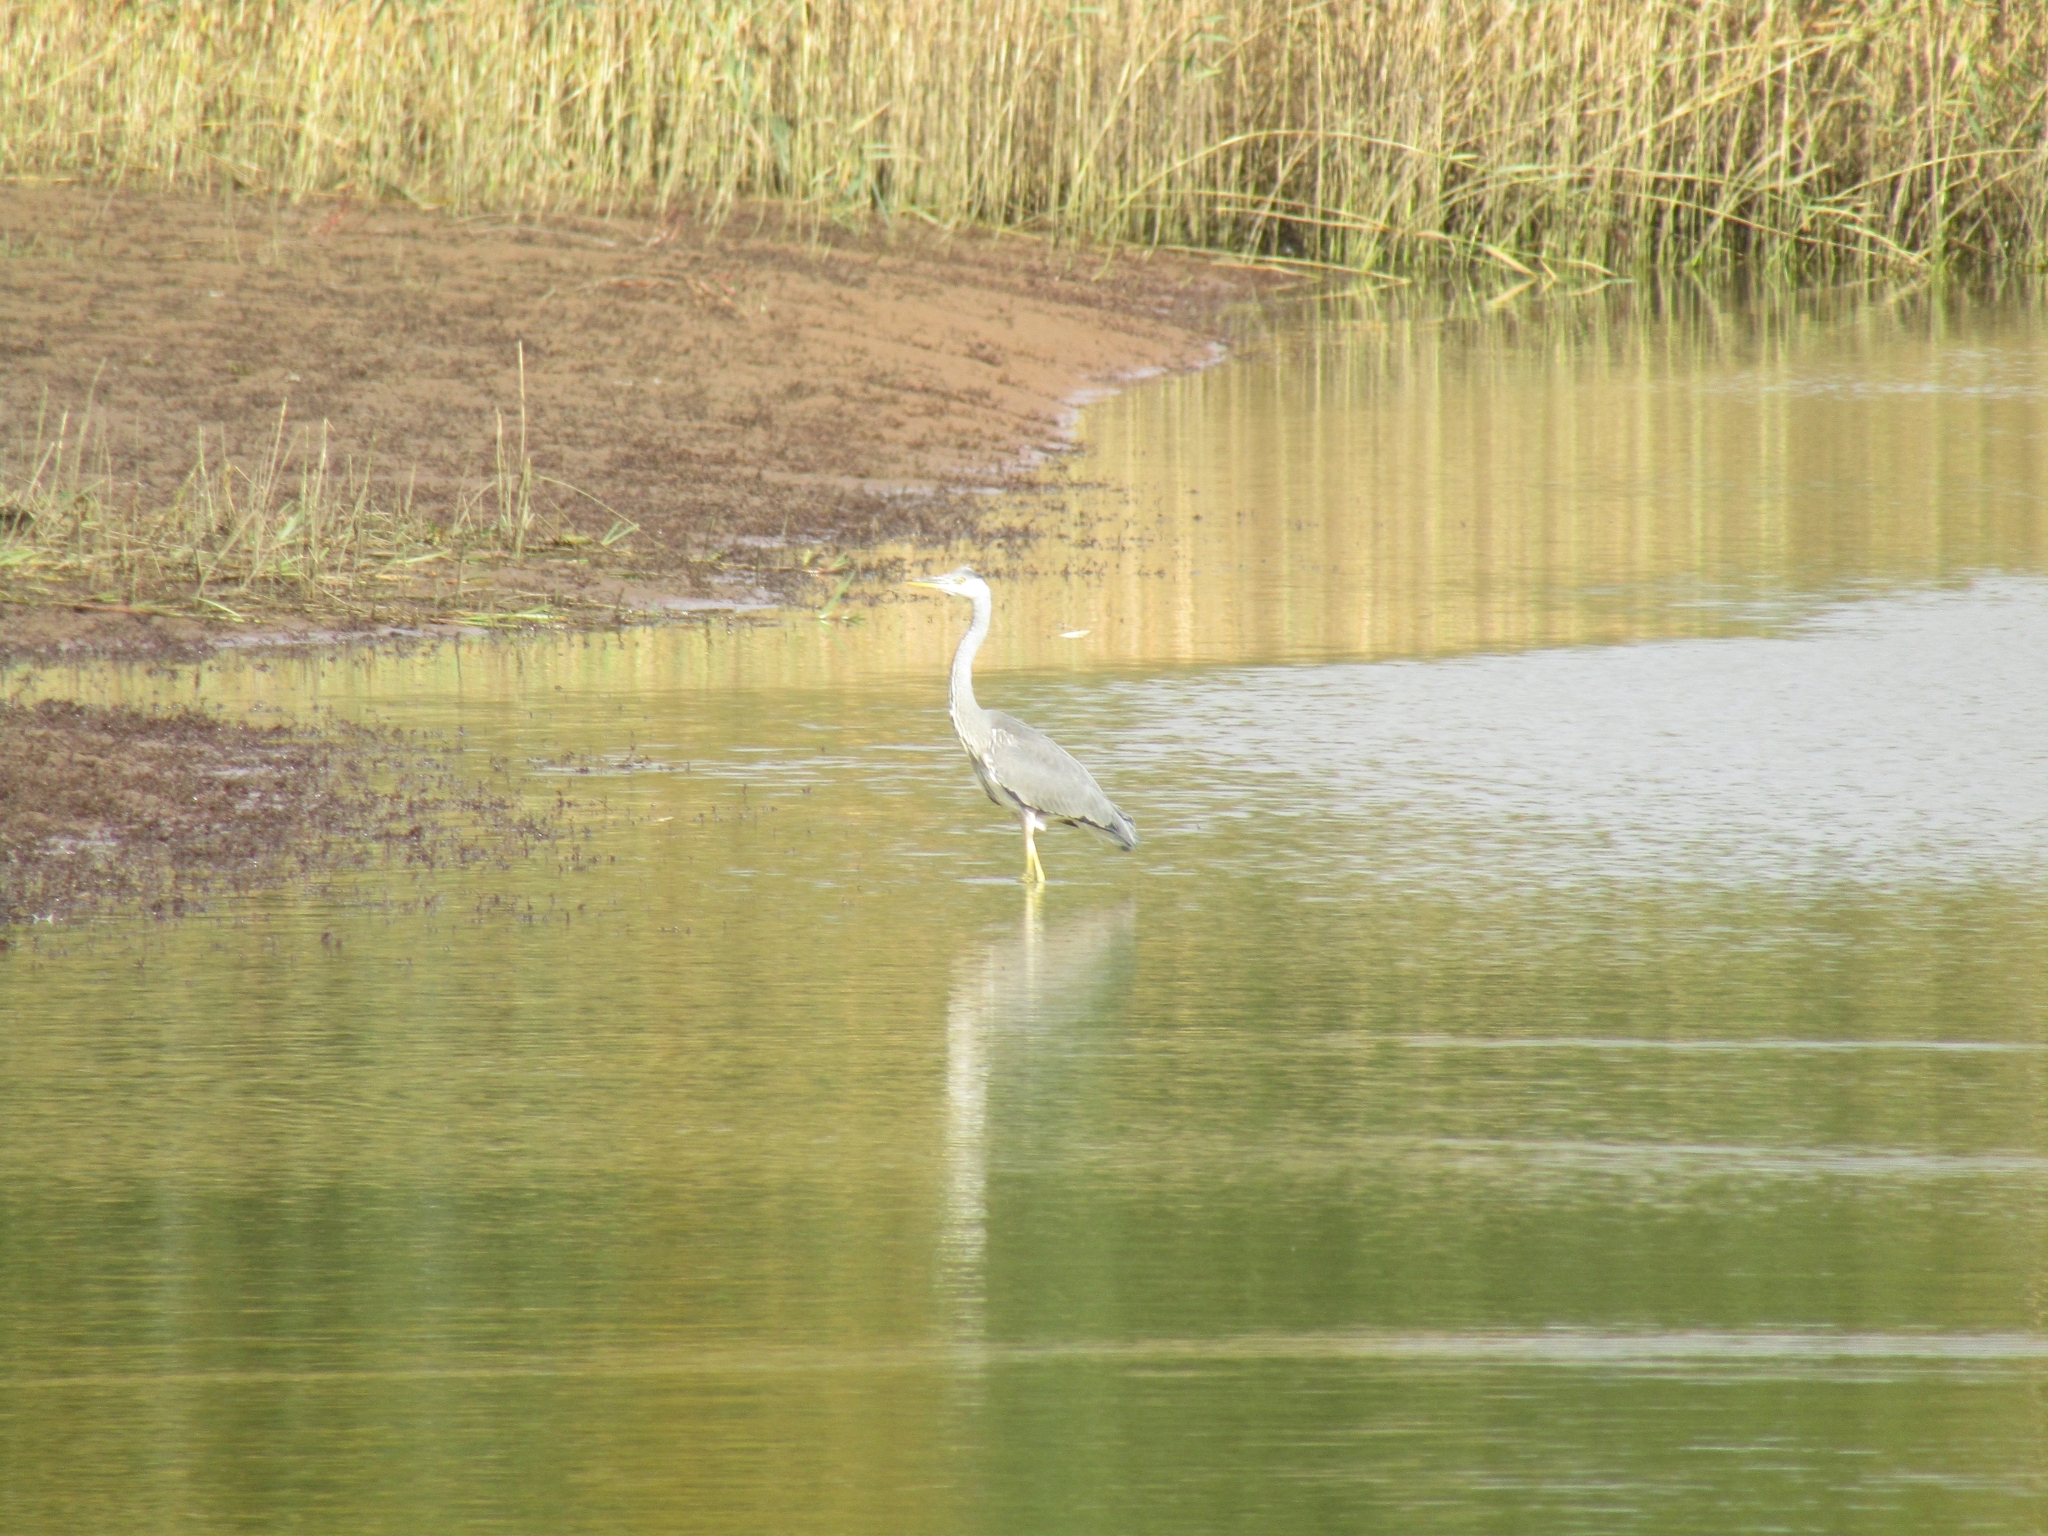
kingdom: Animalia
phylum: Chordata
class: Aves
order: Pelecaniformes
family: Ardeidae
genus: Ardea
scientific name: Ardea cinerea
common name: Grey heron
